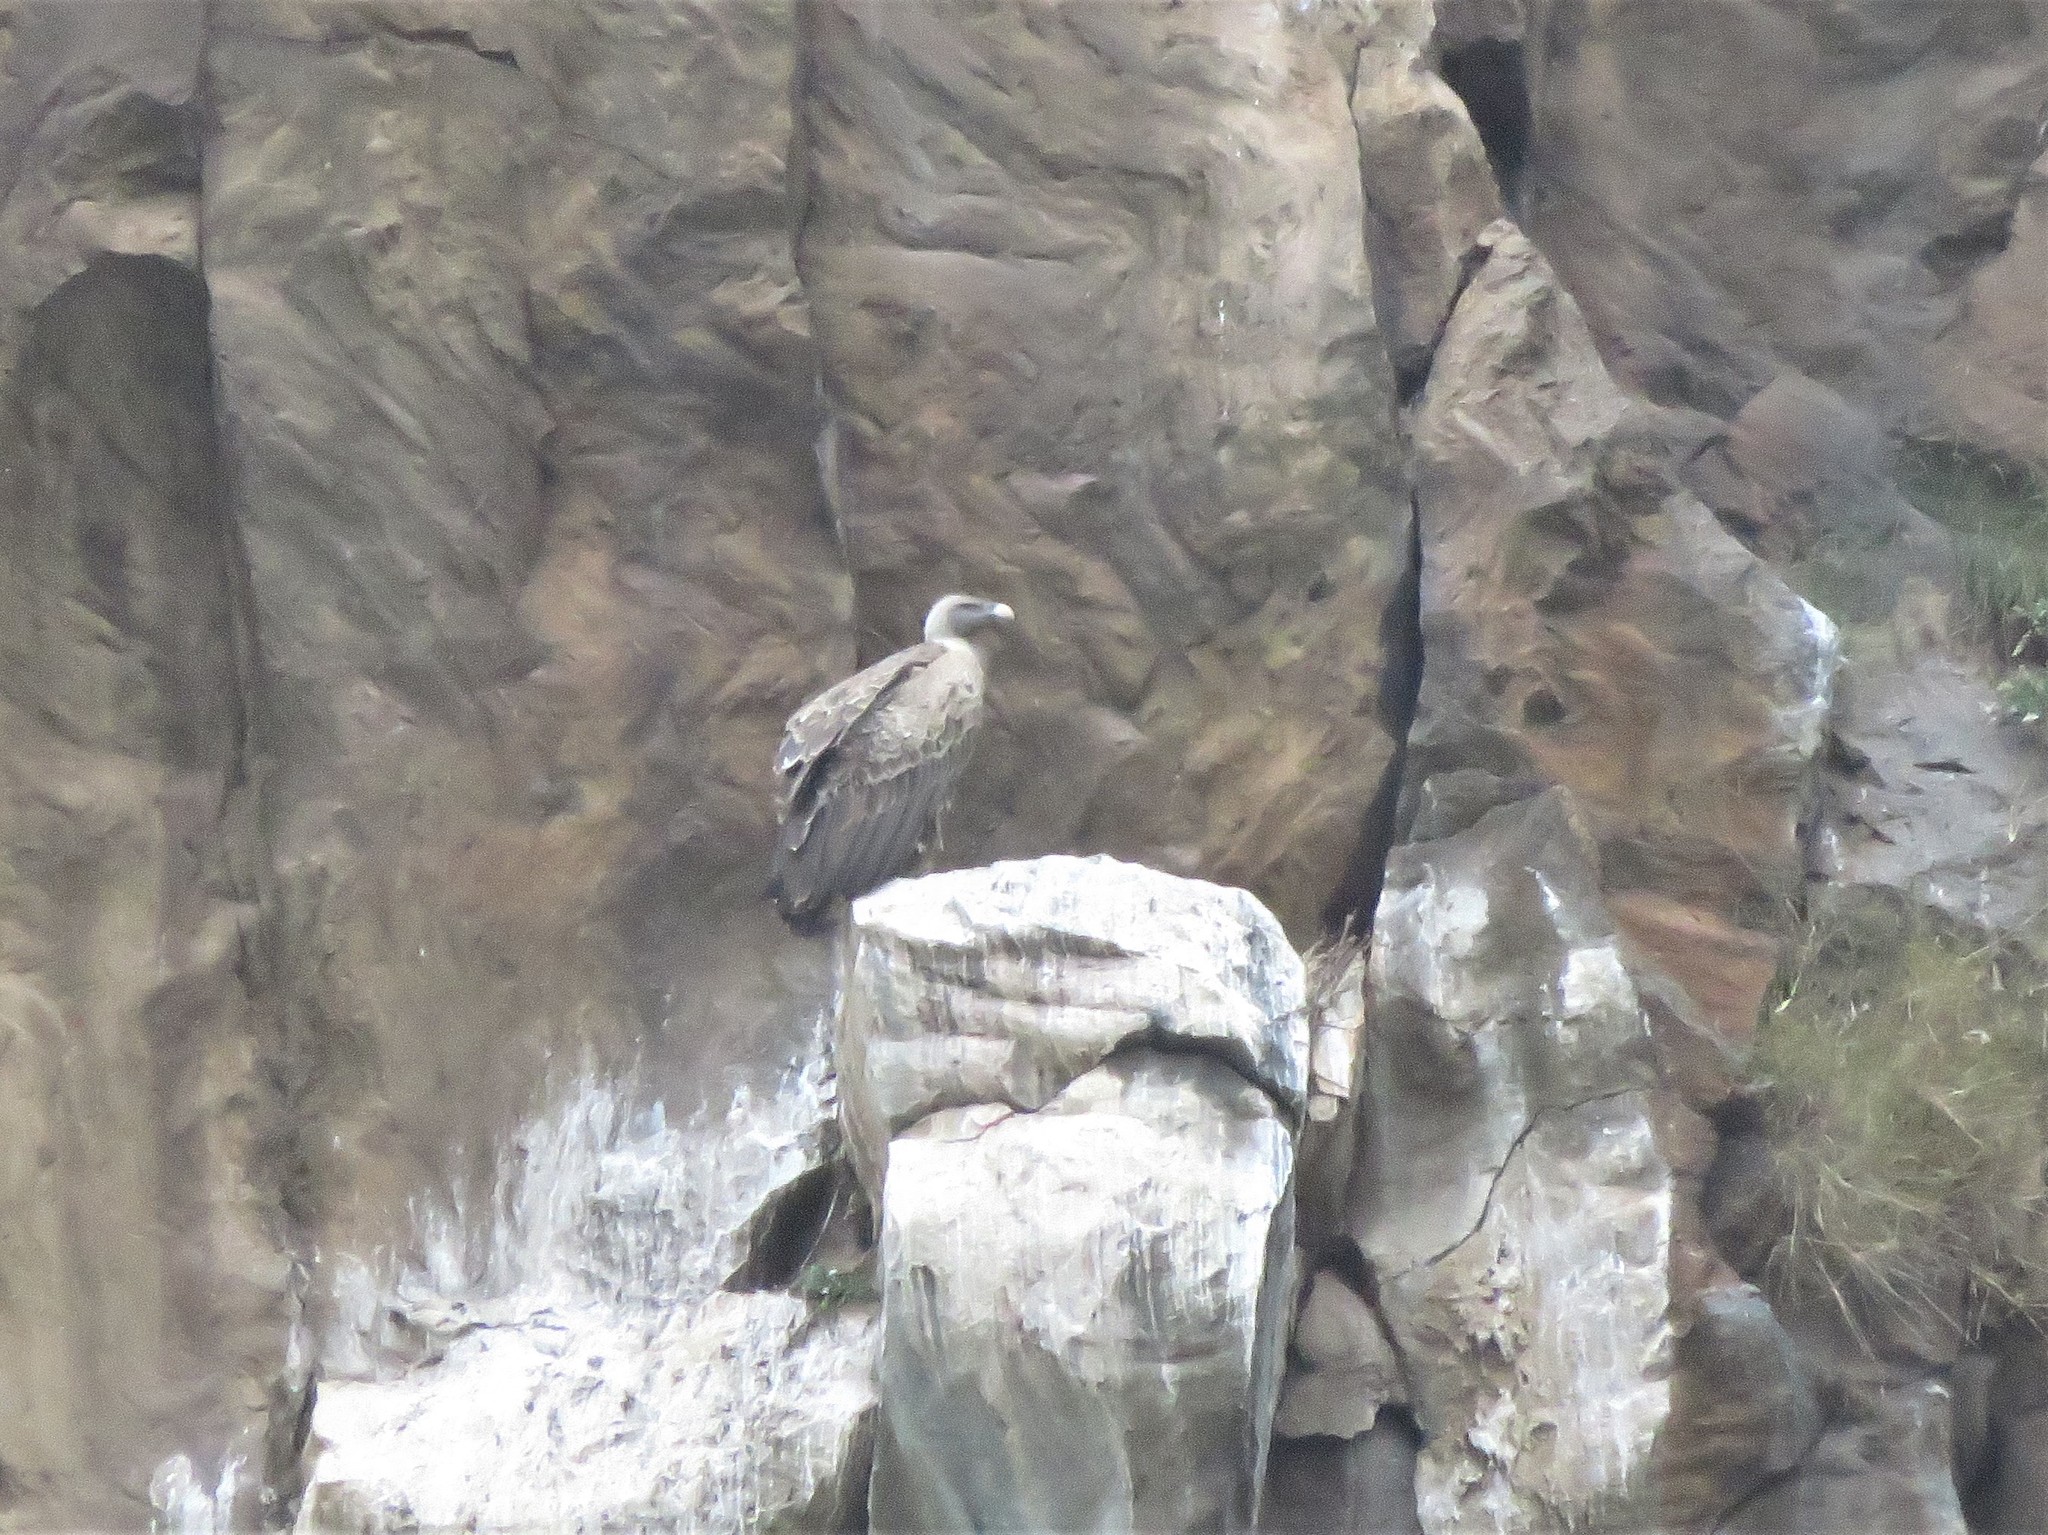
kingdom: Animalia
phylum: Chordata
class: Aves
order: Accipitriformes
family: Accipitridae
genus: Gyps
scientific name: Gyps rueppellii
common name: Rüppell's vulture
